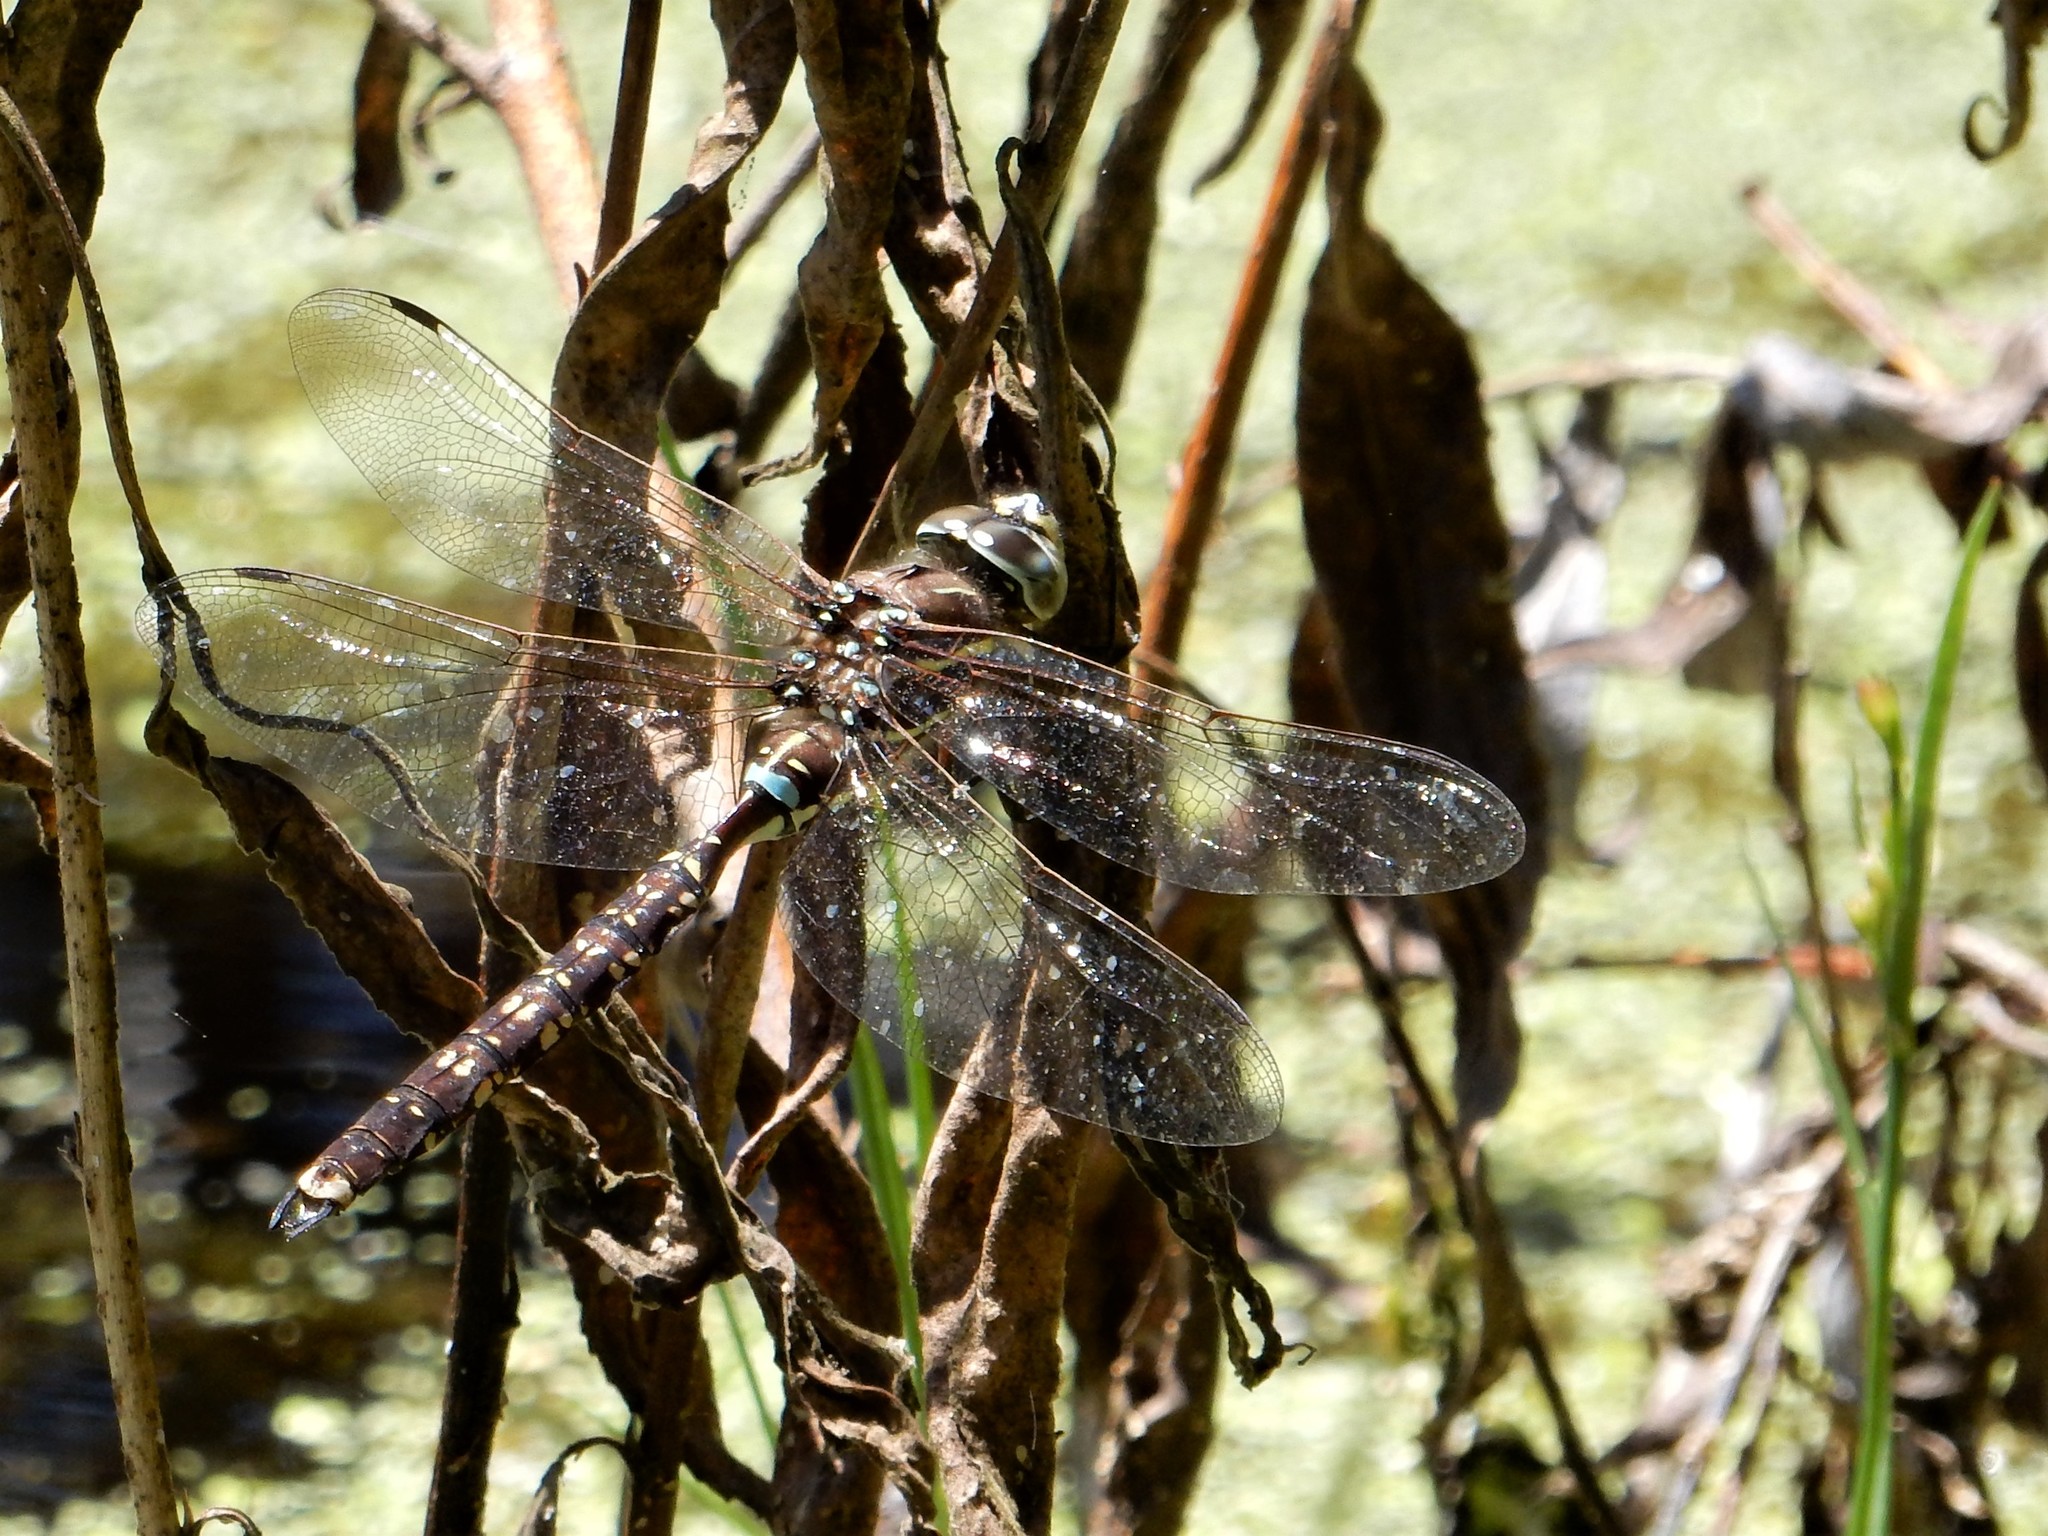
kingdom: Animalia
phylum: Arthropoda
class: Insecta
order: Odonata
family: Aeshnidae
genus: Aeshna
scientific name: Aeshna brevistyla
